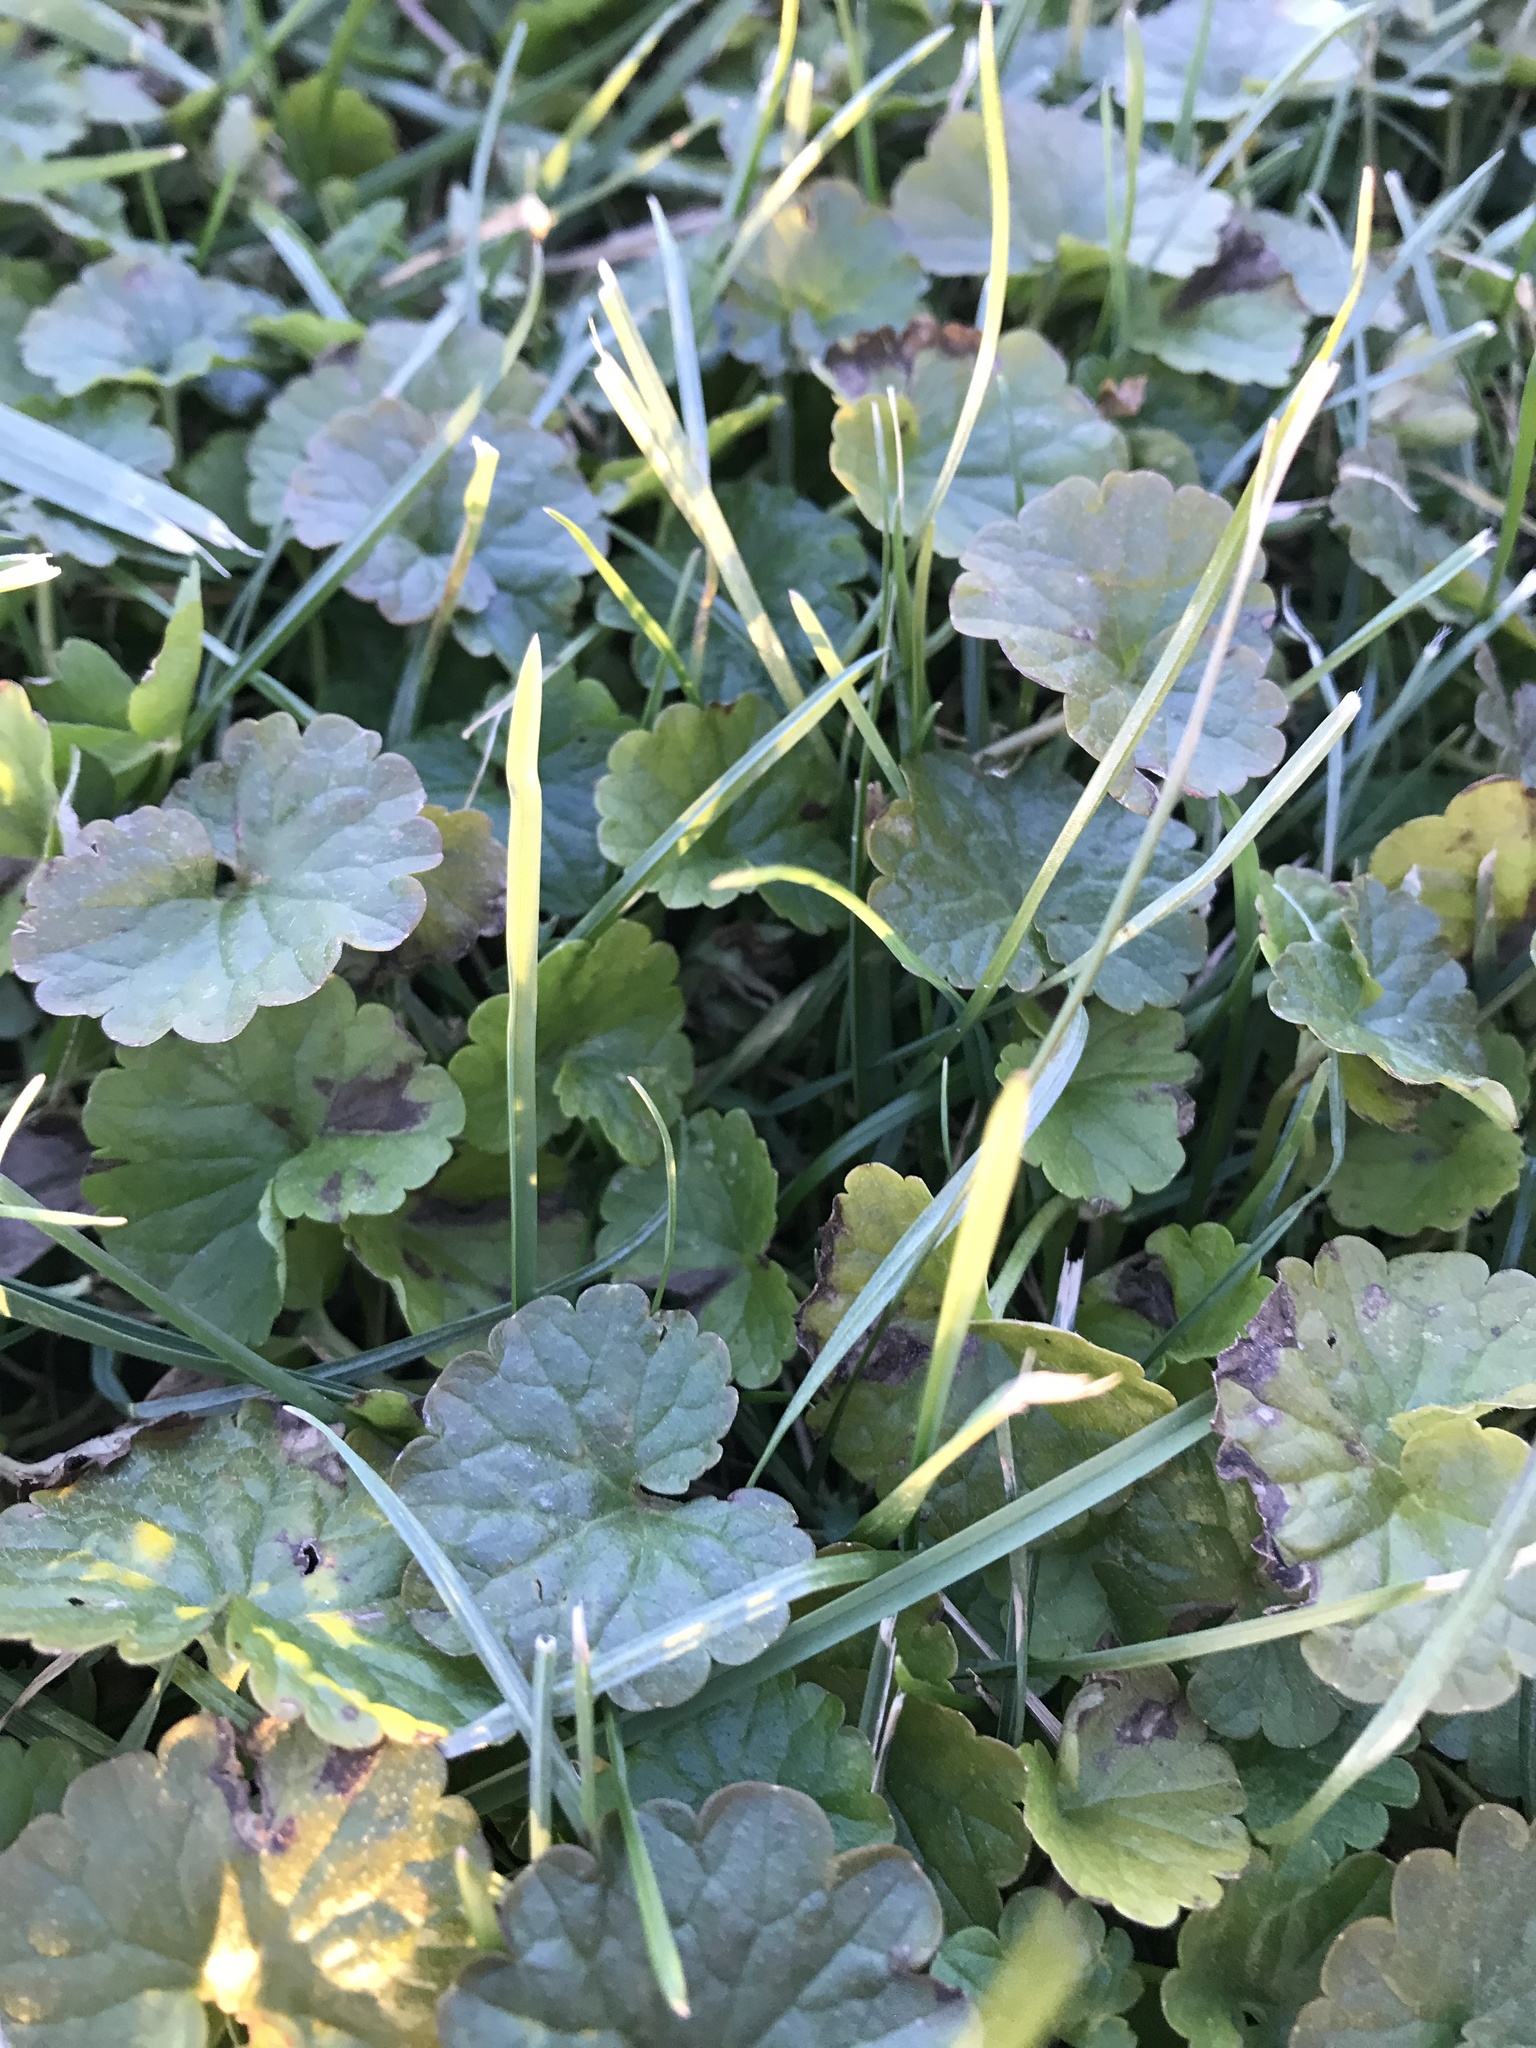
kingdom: Plantae
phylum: Tracheophyta
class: Magnoliopsida
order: Lamiales
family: Lamiaceae
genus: Glechoma
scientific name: Glechoma hederacea
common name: Ground ivy
